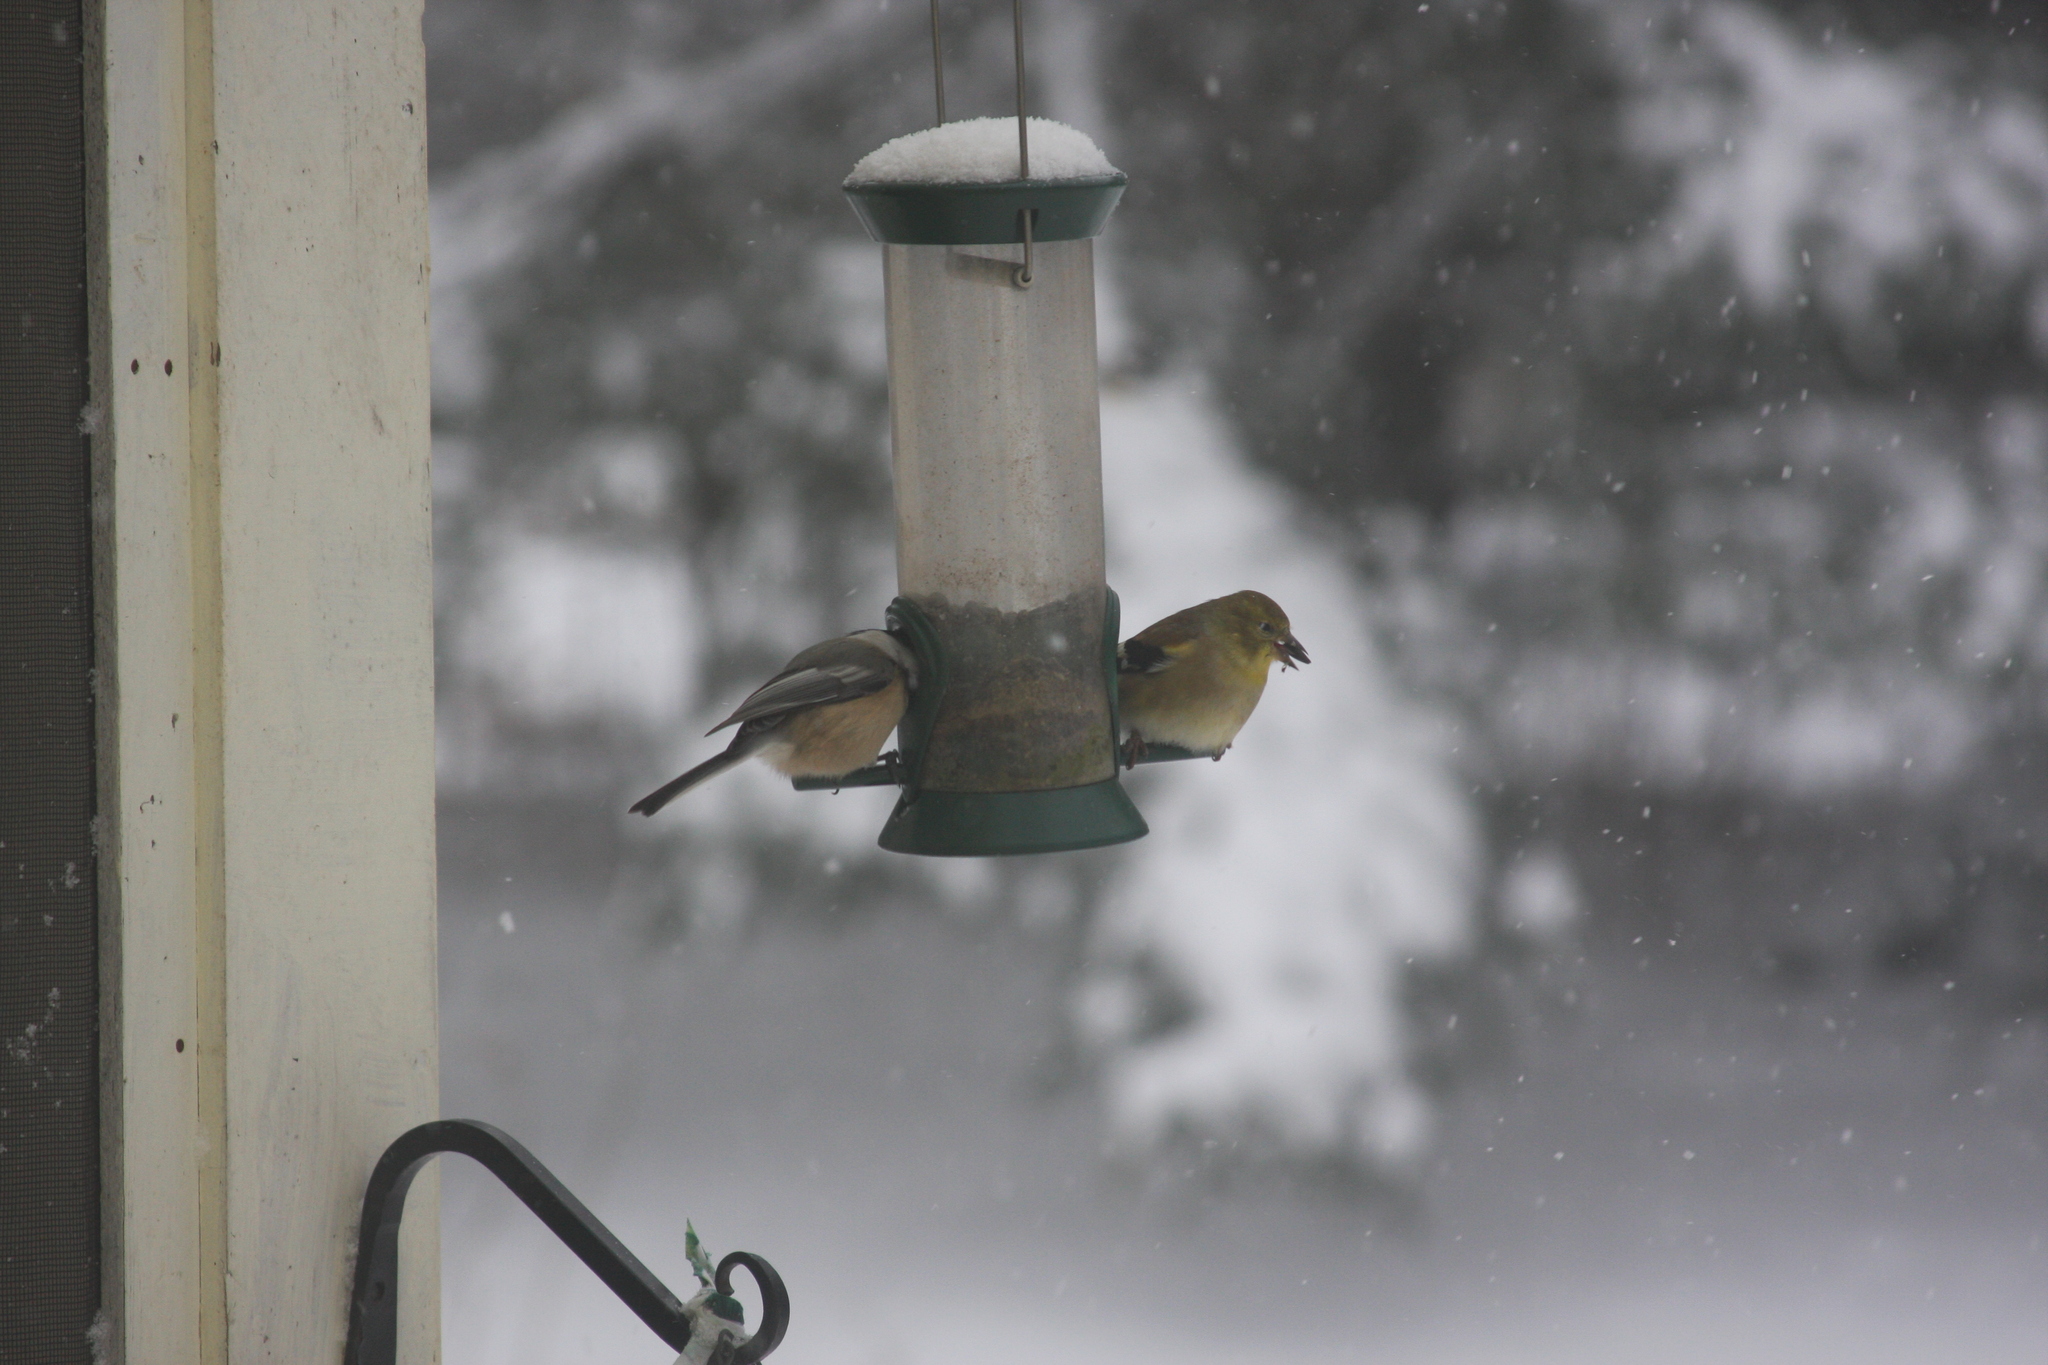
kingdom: Animalia
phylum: Chordata
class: Aves
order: Passeriformes
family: Fringillidae
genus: Spinus
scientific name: Spinus tristis
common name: American goldfinch
